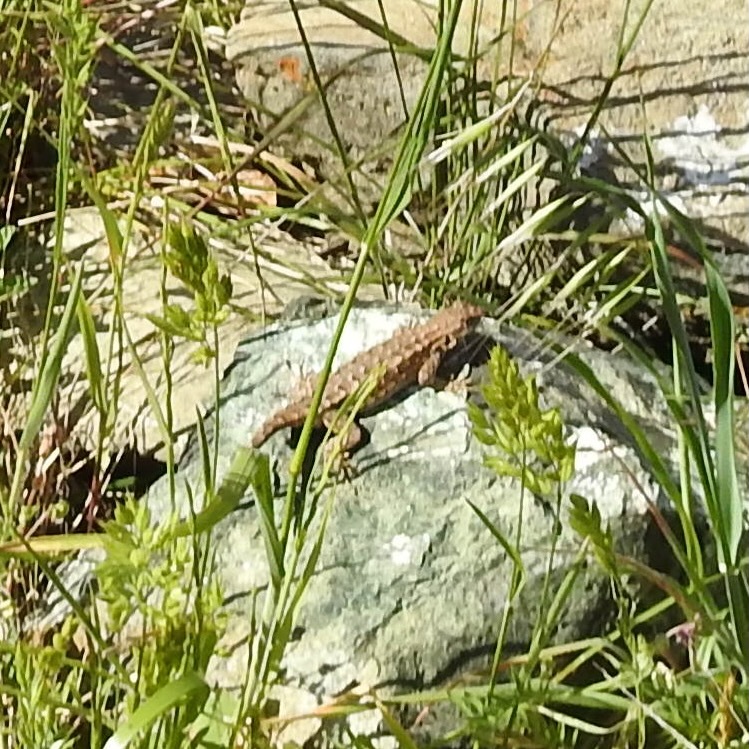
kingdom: Animalia
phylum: Chordata
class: Squamata
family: Phrynosomatidae
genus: Sceloporus
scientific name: Sceloporus occidentalis
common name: Western fence lizard
